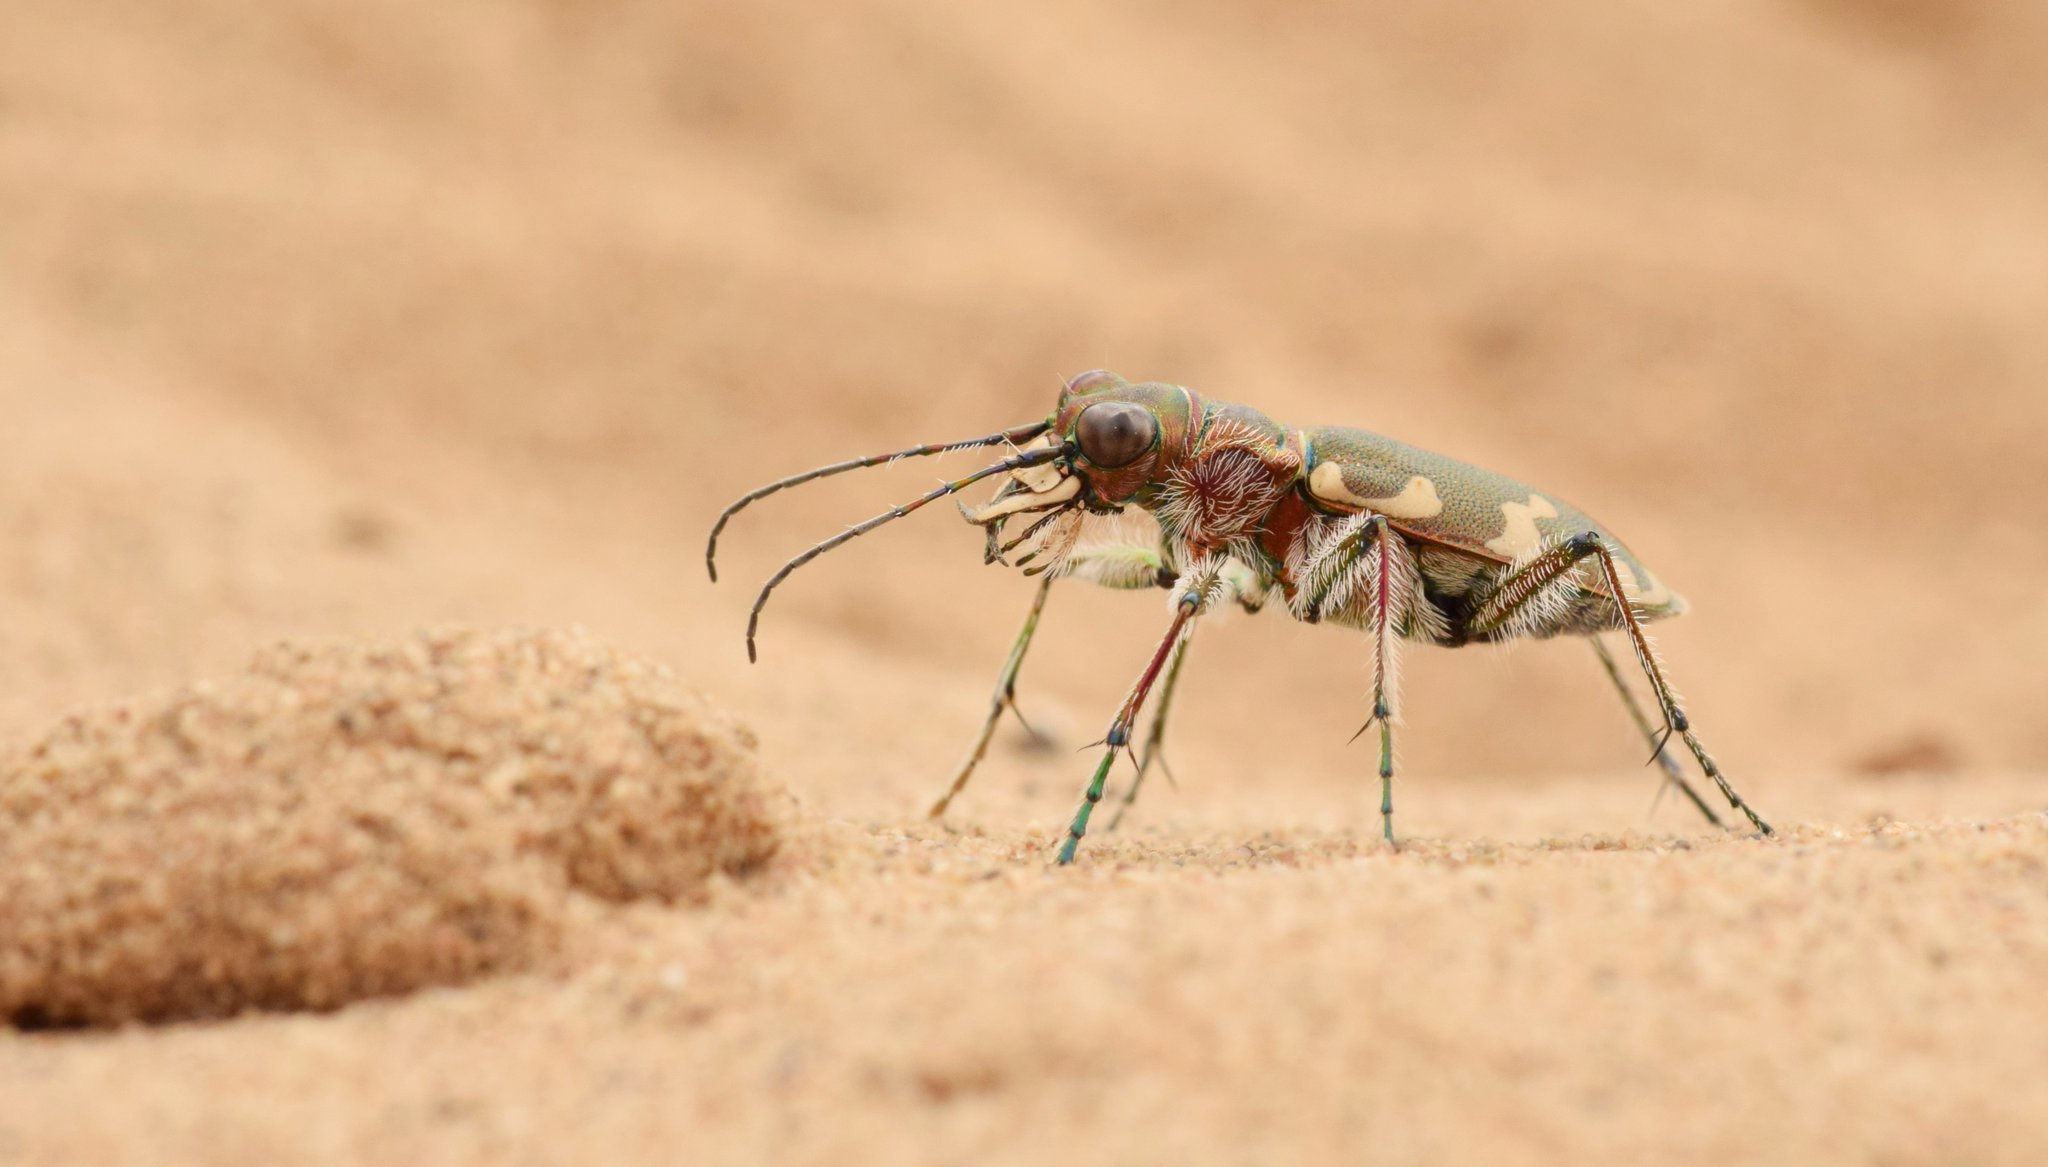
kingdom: Animalia
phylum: Arthropoda
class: Insecta
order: Coleoptera
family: Carabidae
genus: Cicindela
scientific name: Cicindela hybrida
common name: Northern dune tiger beetle
